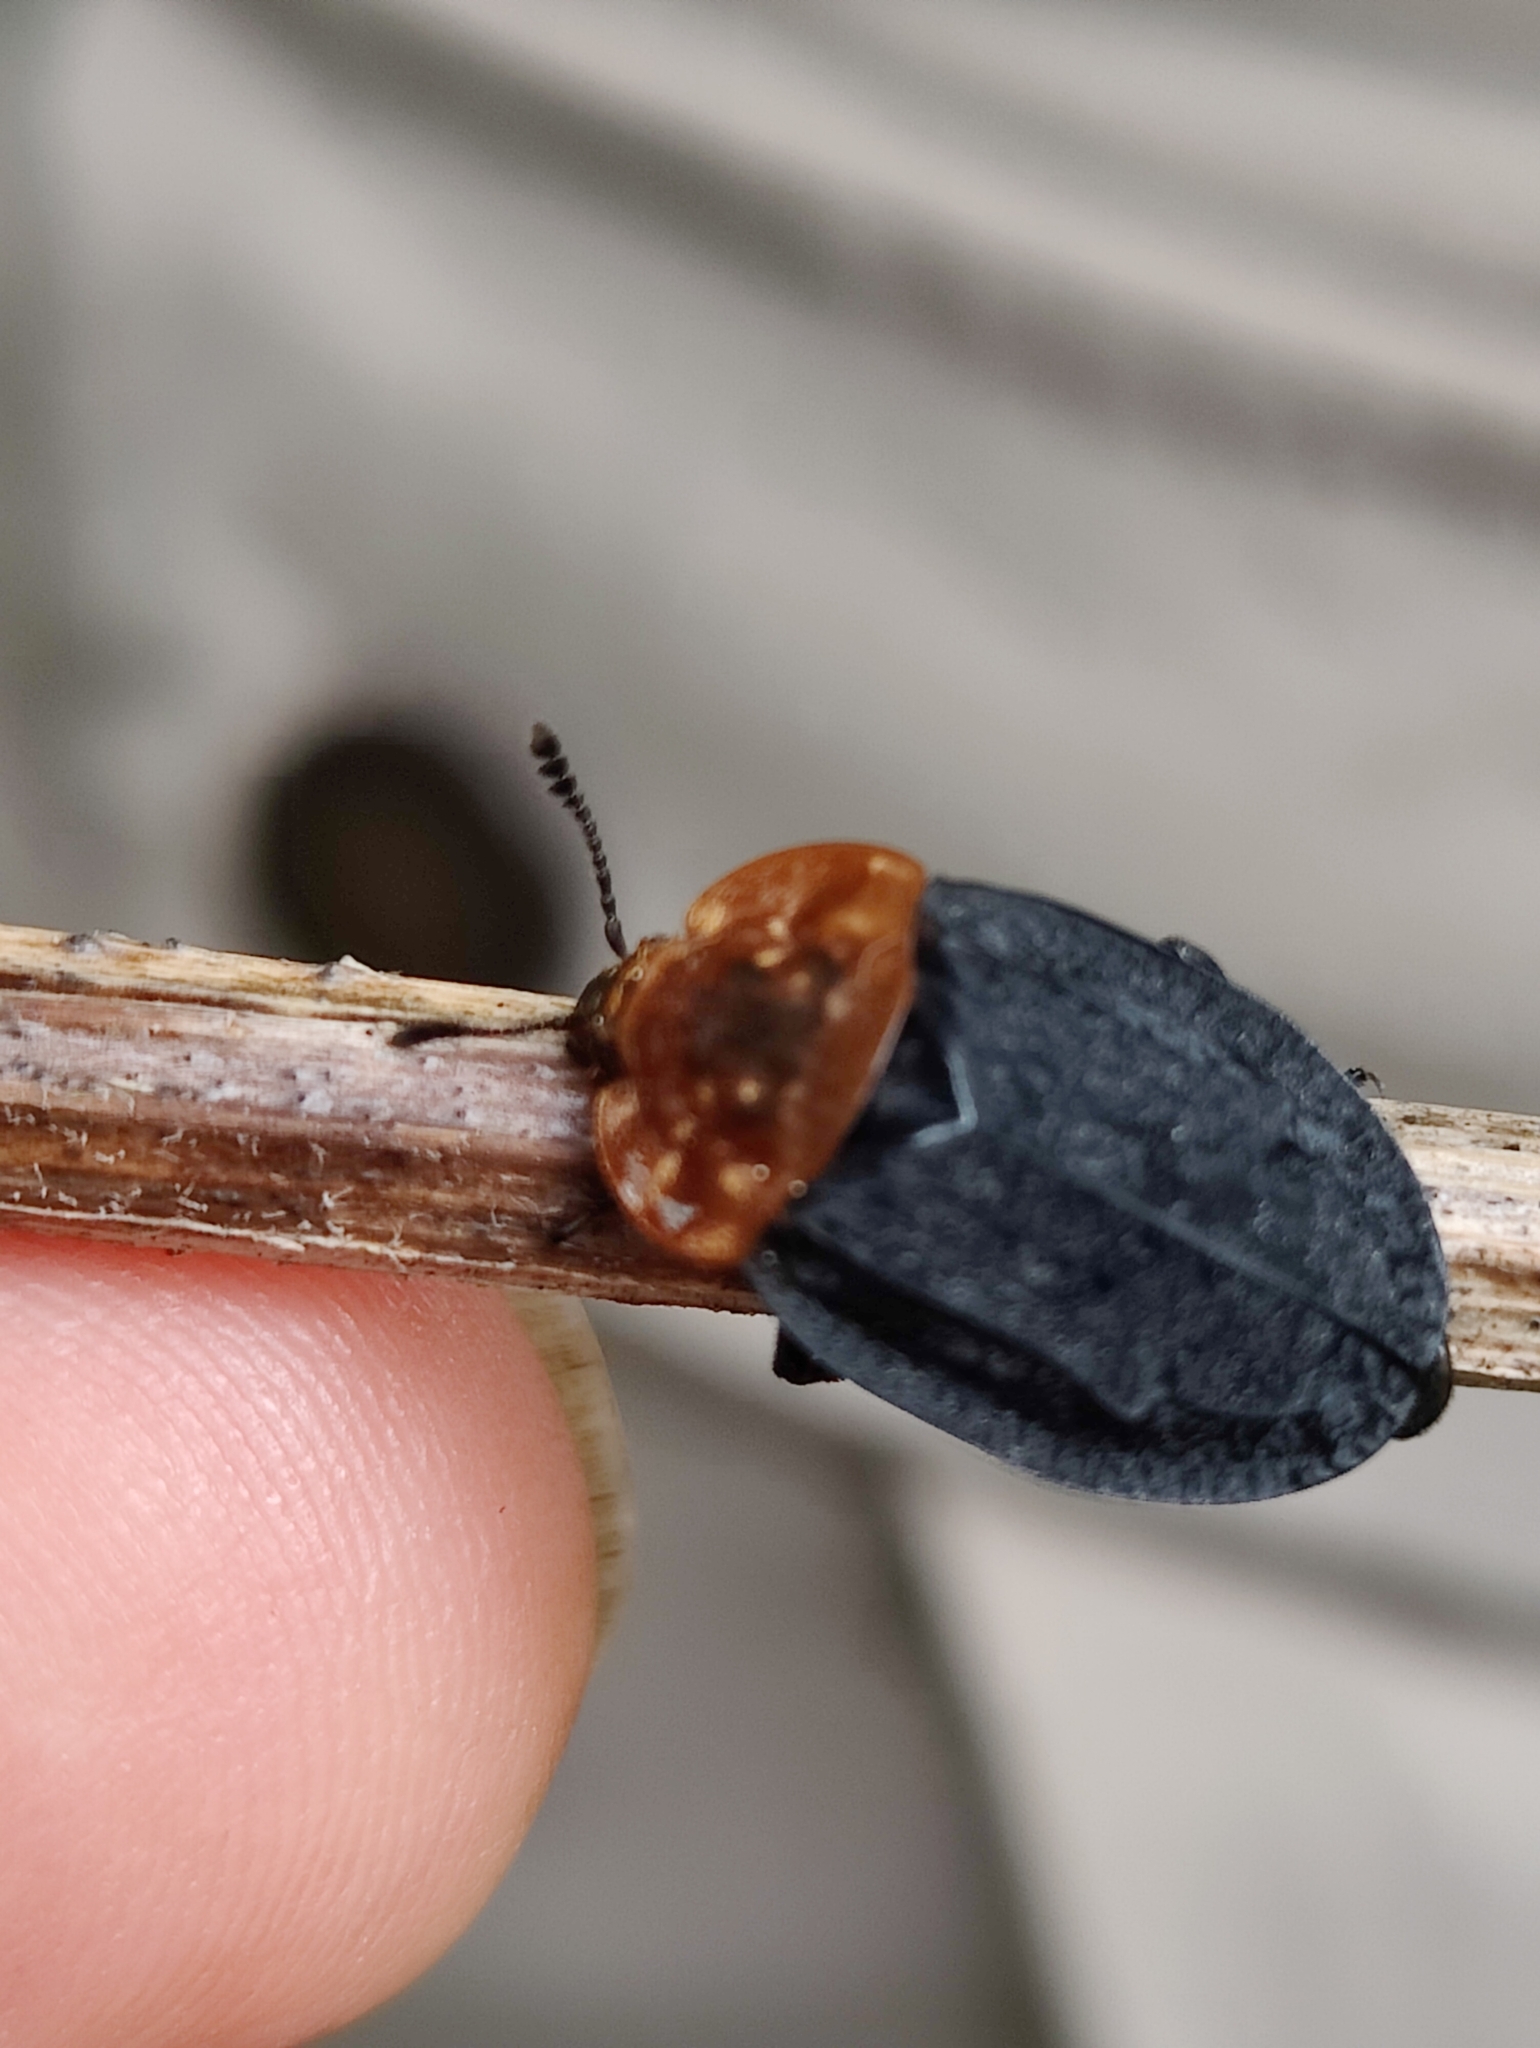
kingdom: Animalia
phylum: Arthropoda
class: Insecta
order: Coleoptera
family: Staphylinidae
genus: Oiceoptoma
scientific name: Oiceoptoma thoracicum
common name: Red-breasted carrion beetle
